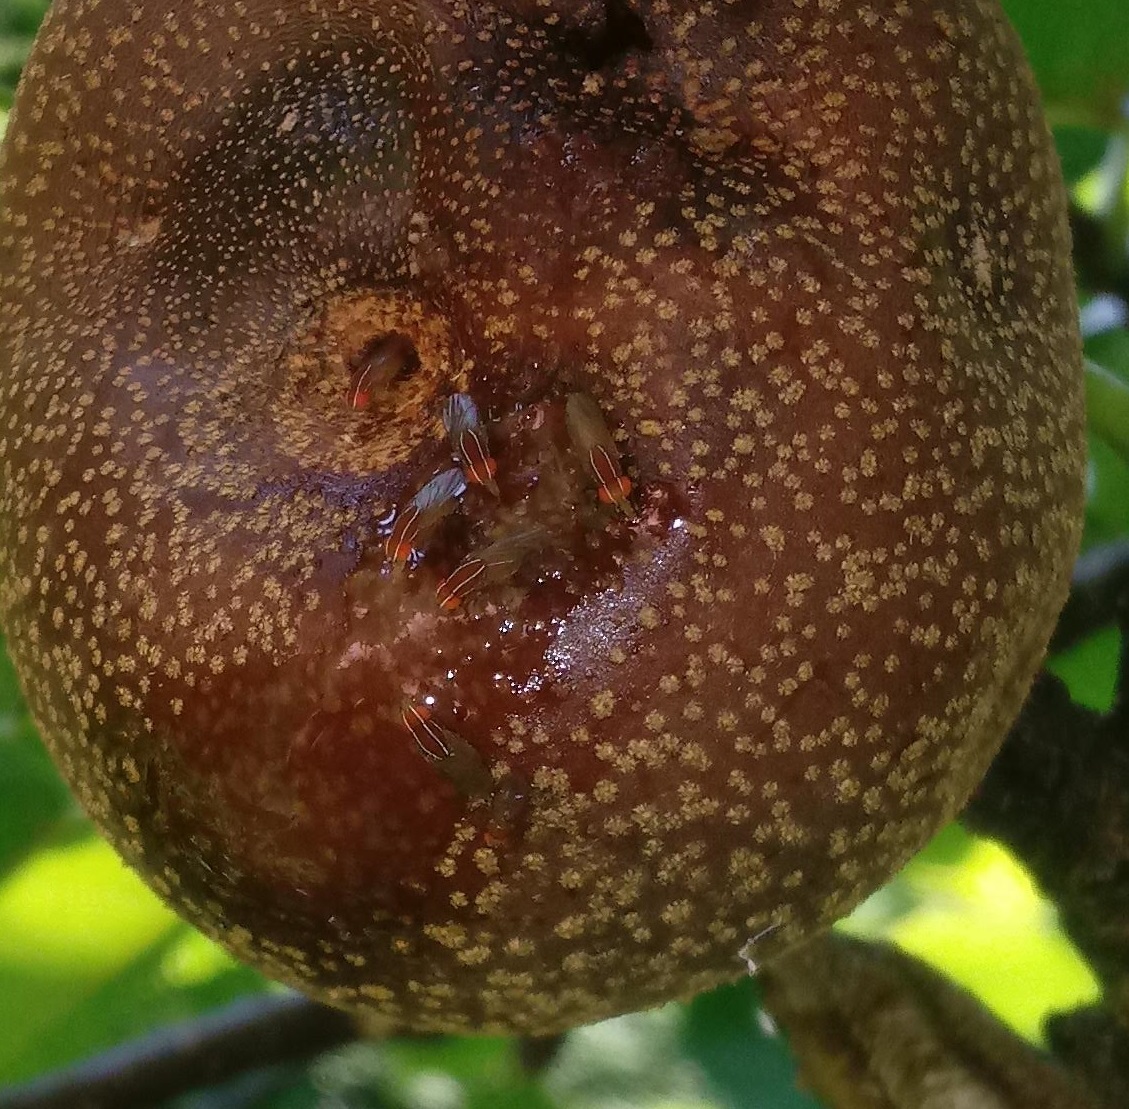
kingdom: Animalia
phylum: Arthropoda
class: Insecta
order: Diptera
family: Drosophilidae
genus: Zaprionus
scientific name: Zaprionus indianus
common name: African fig fly
